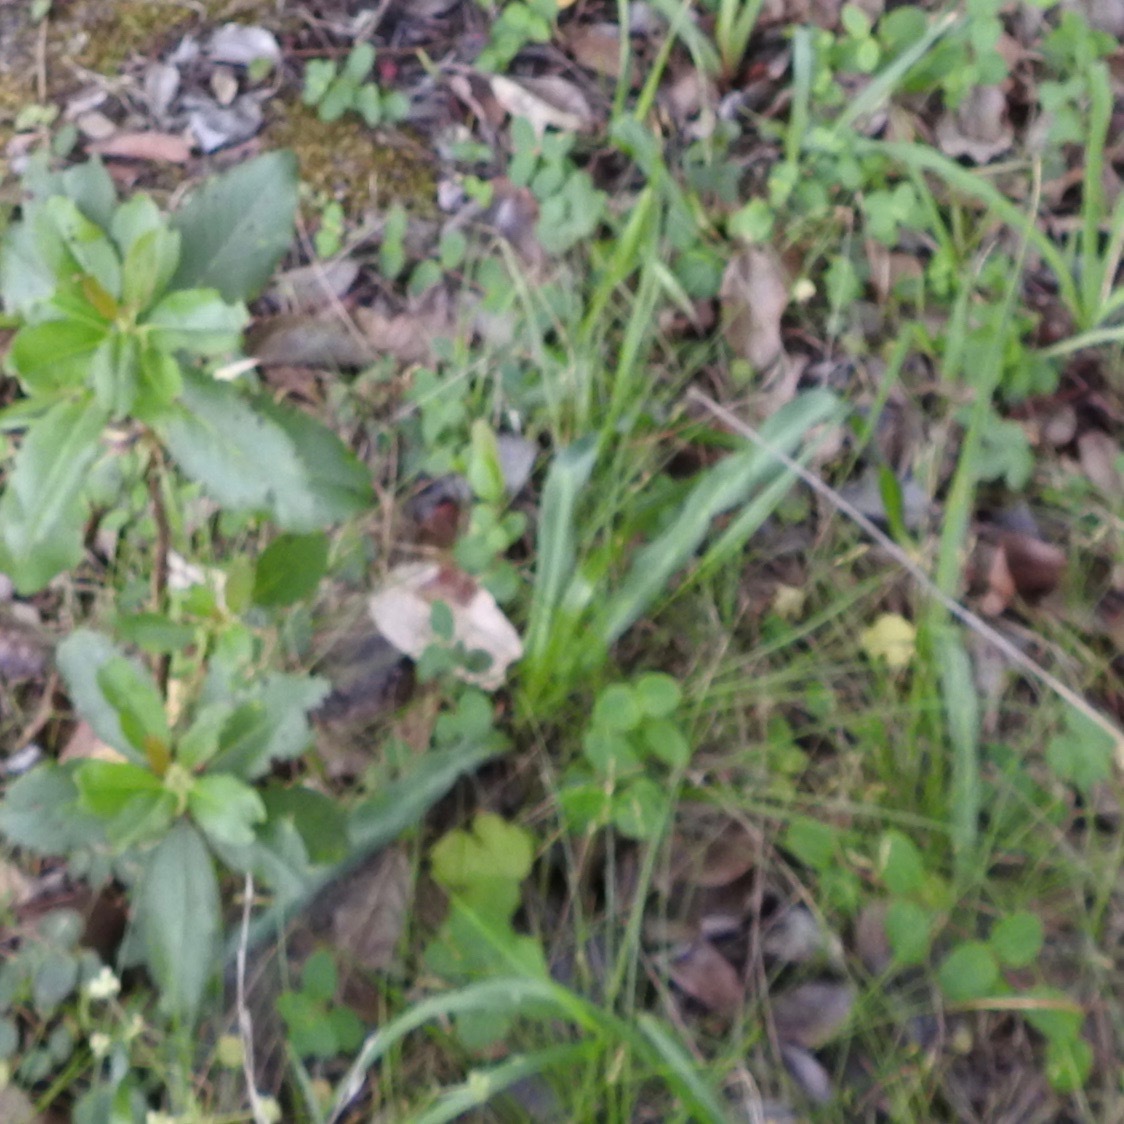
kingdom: Plantae
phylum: Tracheophyta
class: Liliopsida
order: Asparagales
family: Asparagaceae
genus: Chlorogalum
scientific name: Chlorogalum pomeridianum
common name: Amole
